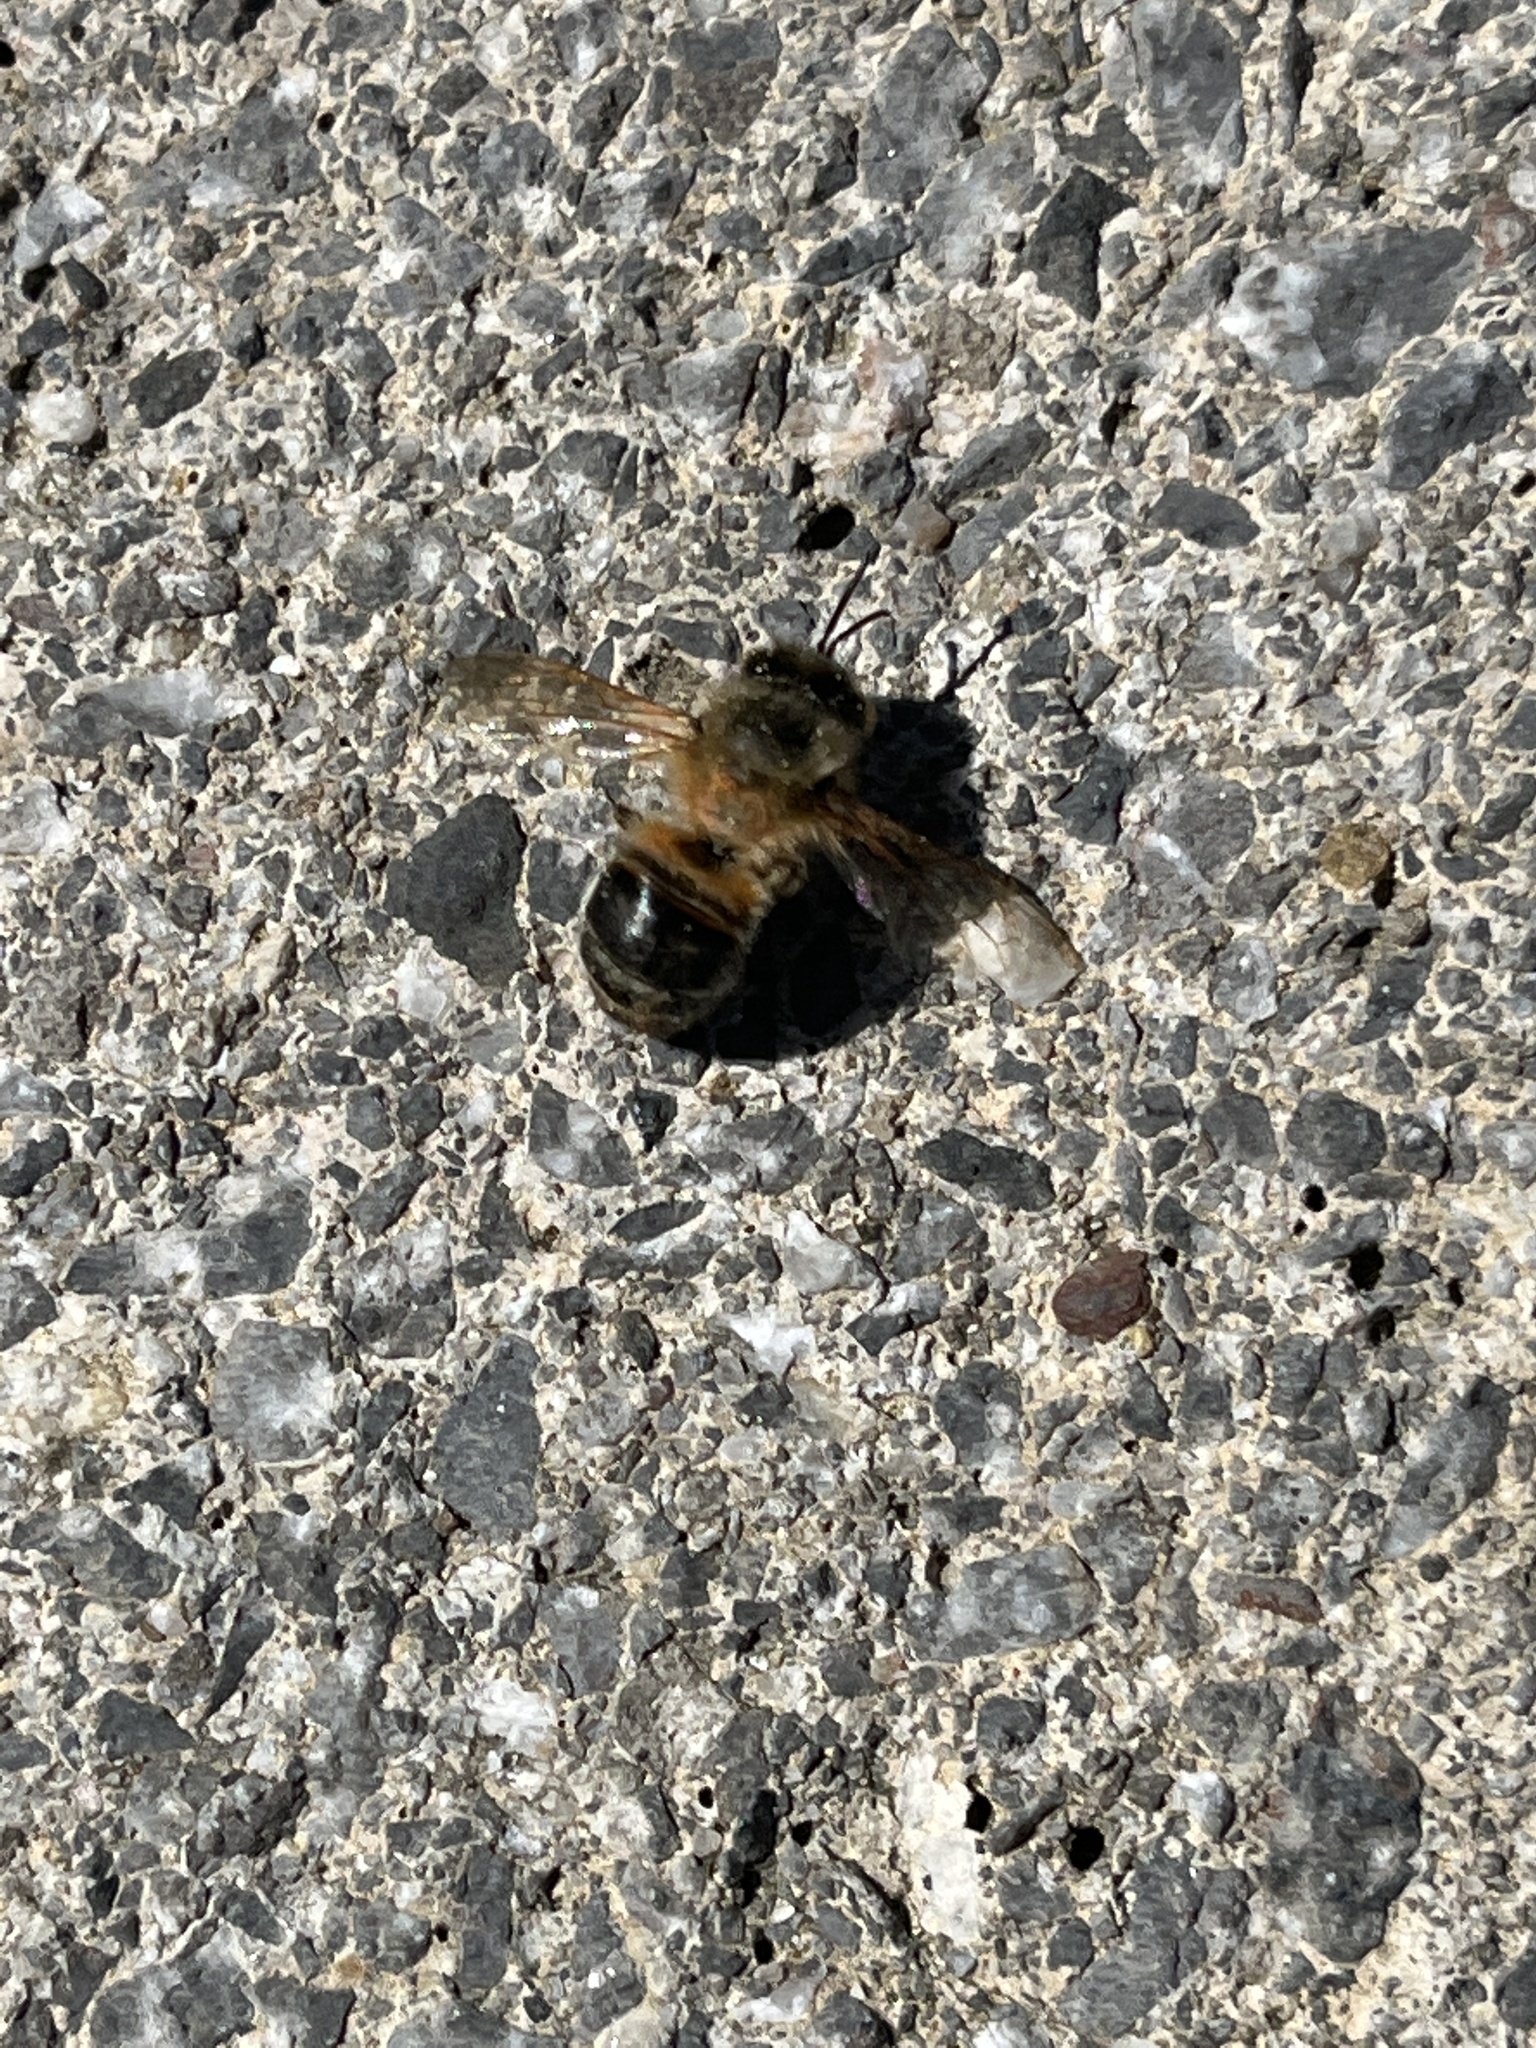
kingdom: Animalia
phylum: Arthropoda
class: Insecta
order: Hymenoptera
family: Apidae
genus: Apis
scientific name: Apis mellifera
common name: Honey bee
